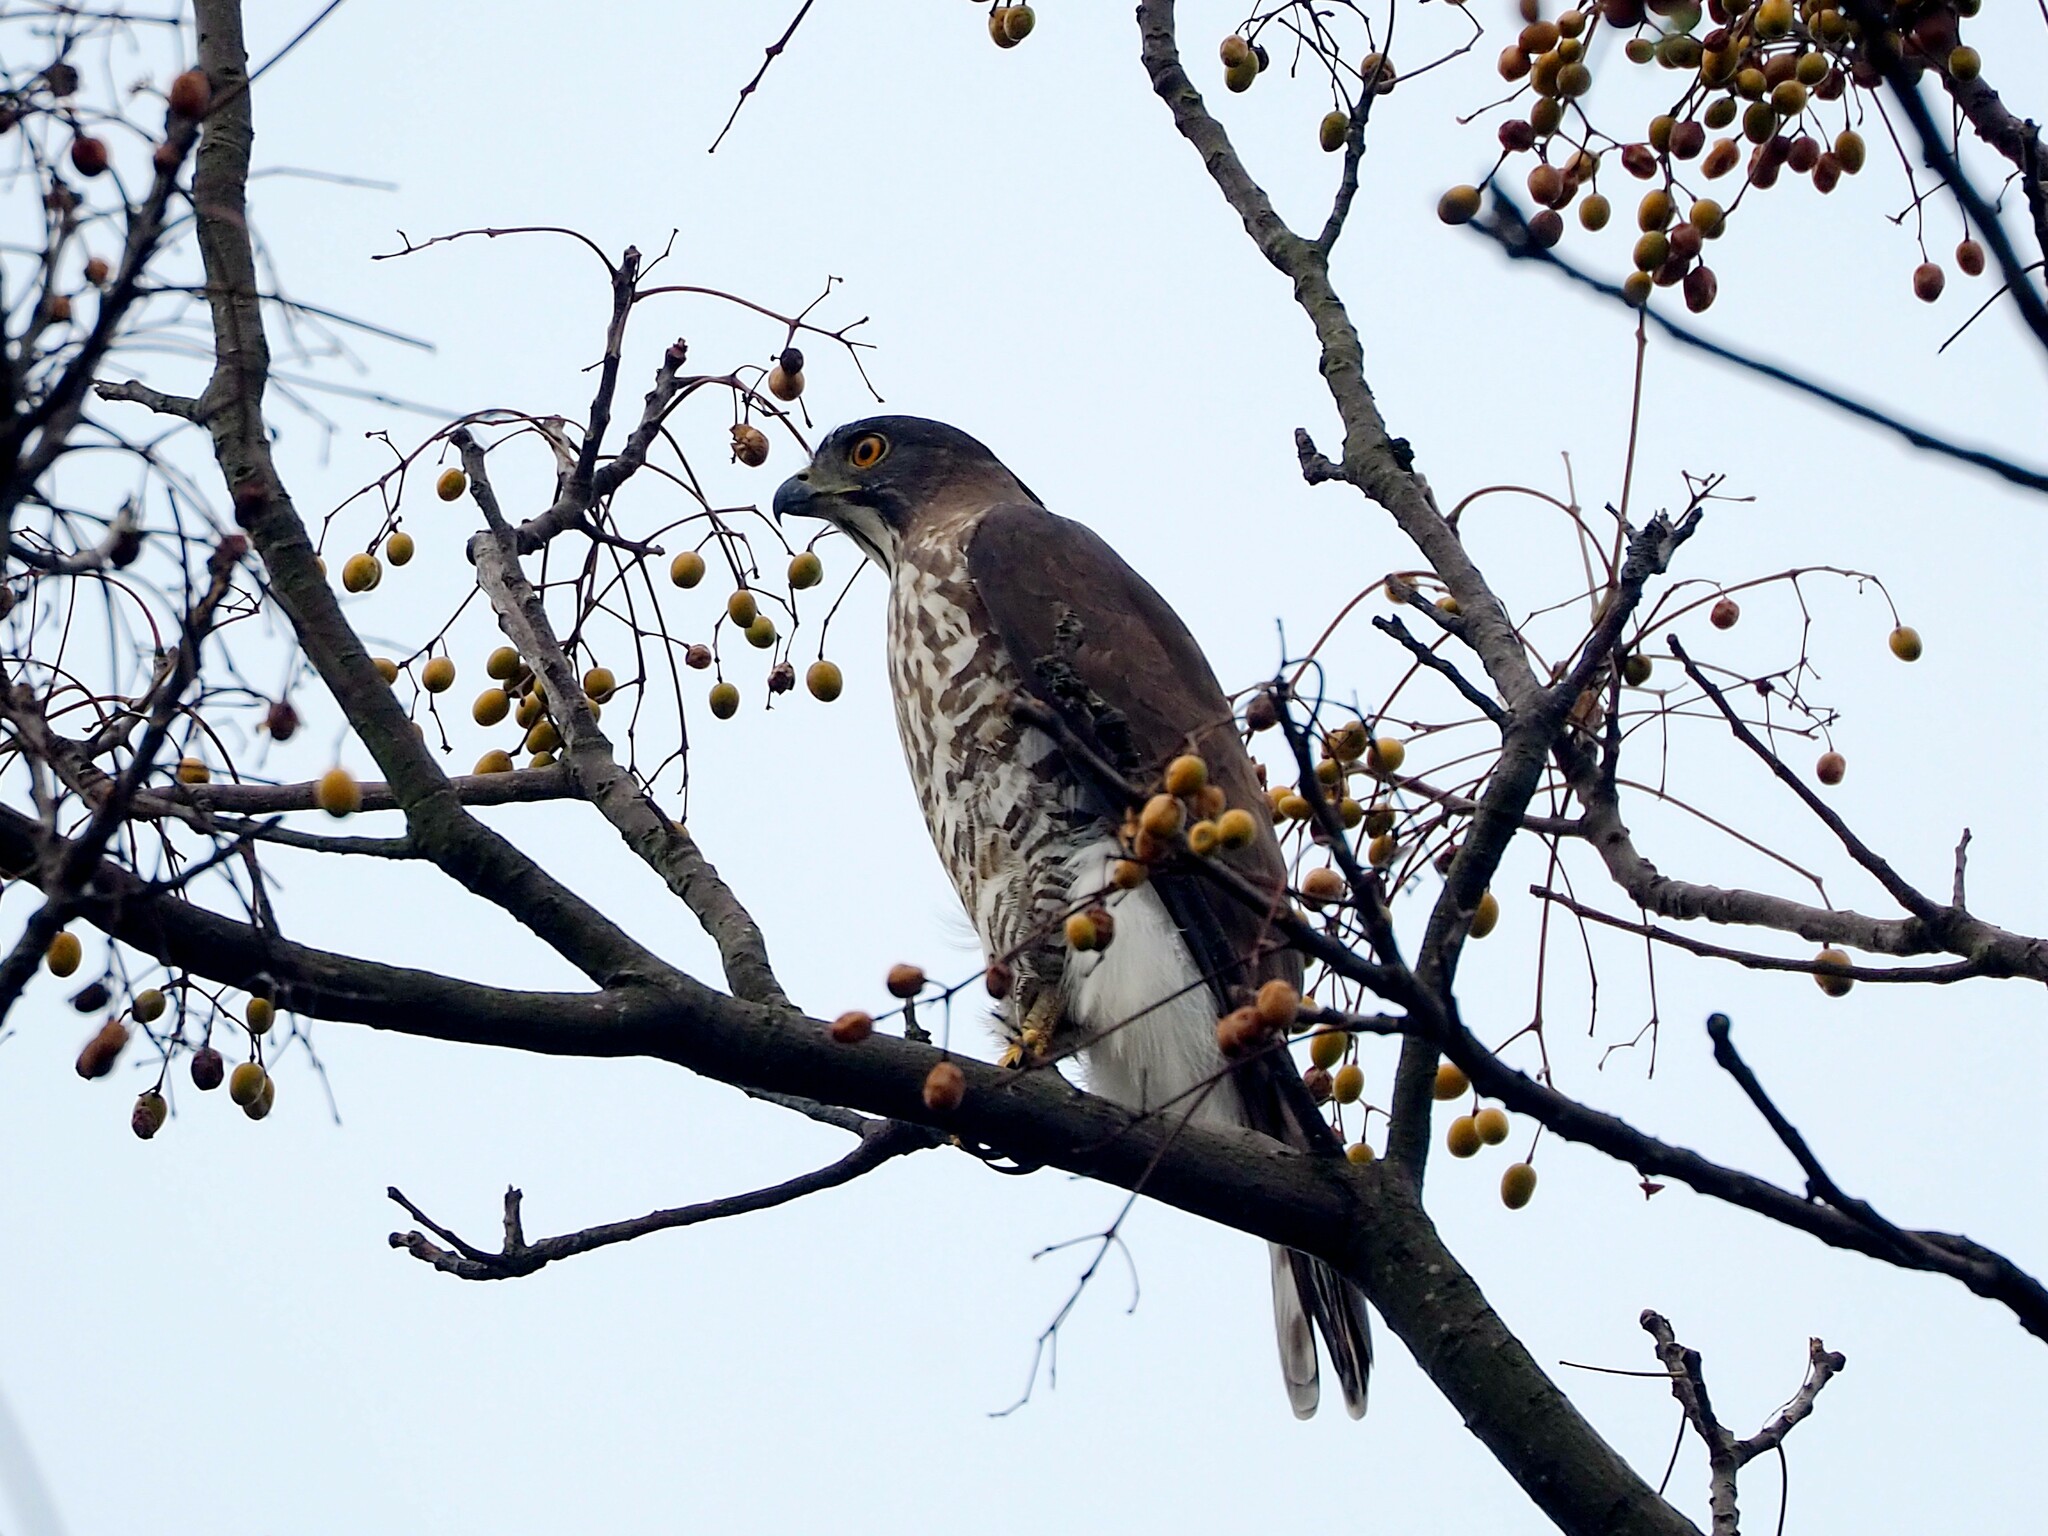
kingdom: Animalia
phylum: Chordata
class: Aves
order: Accipitriformes
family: Accipitridae
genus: Accipiter
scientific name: Accipiter trivirgatus
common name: Crested goshawk
